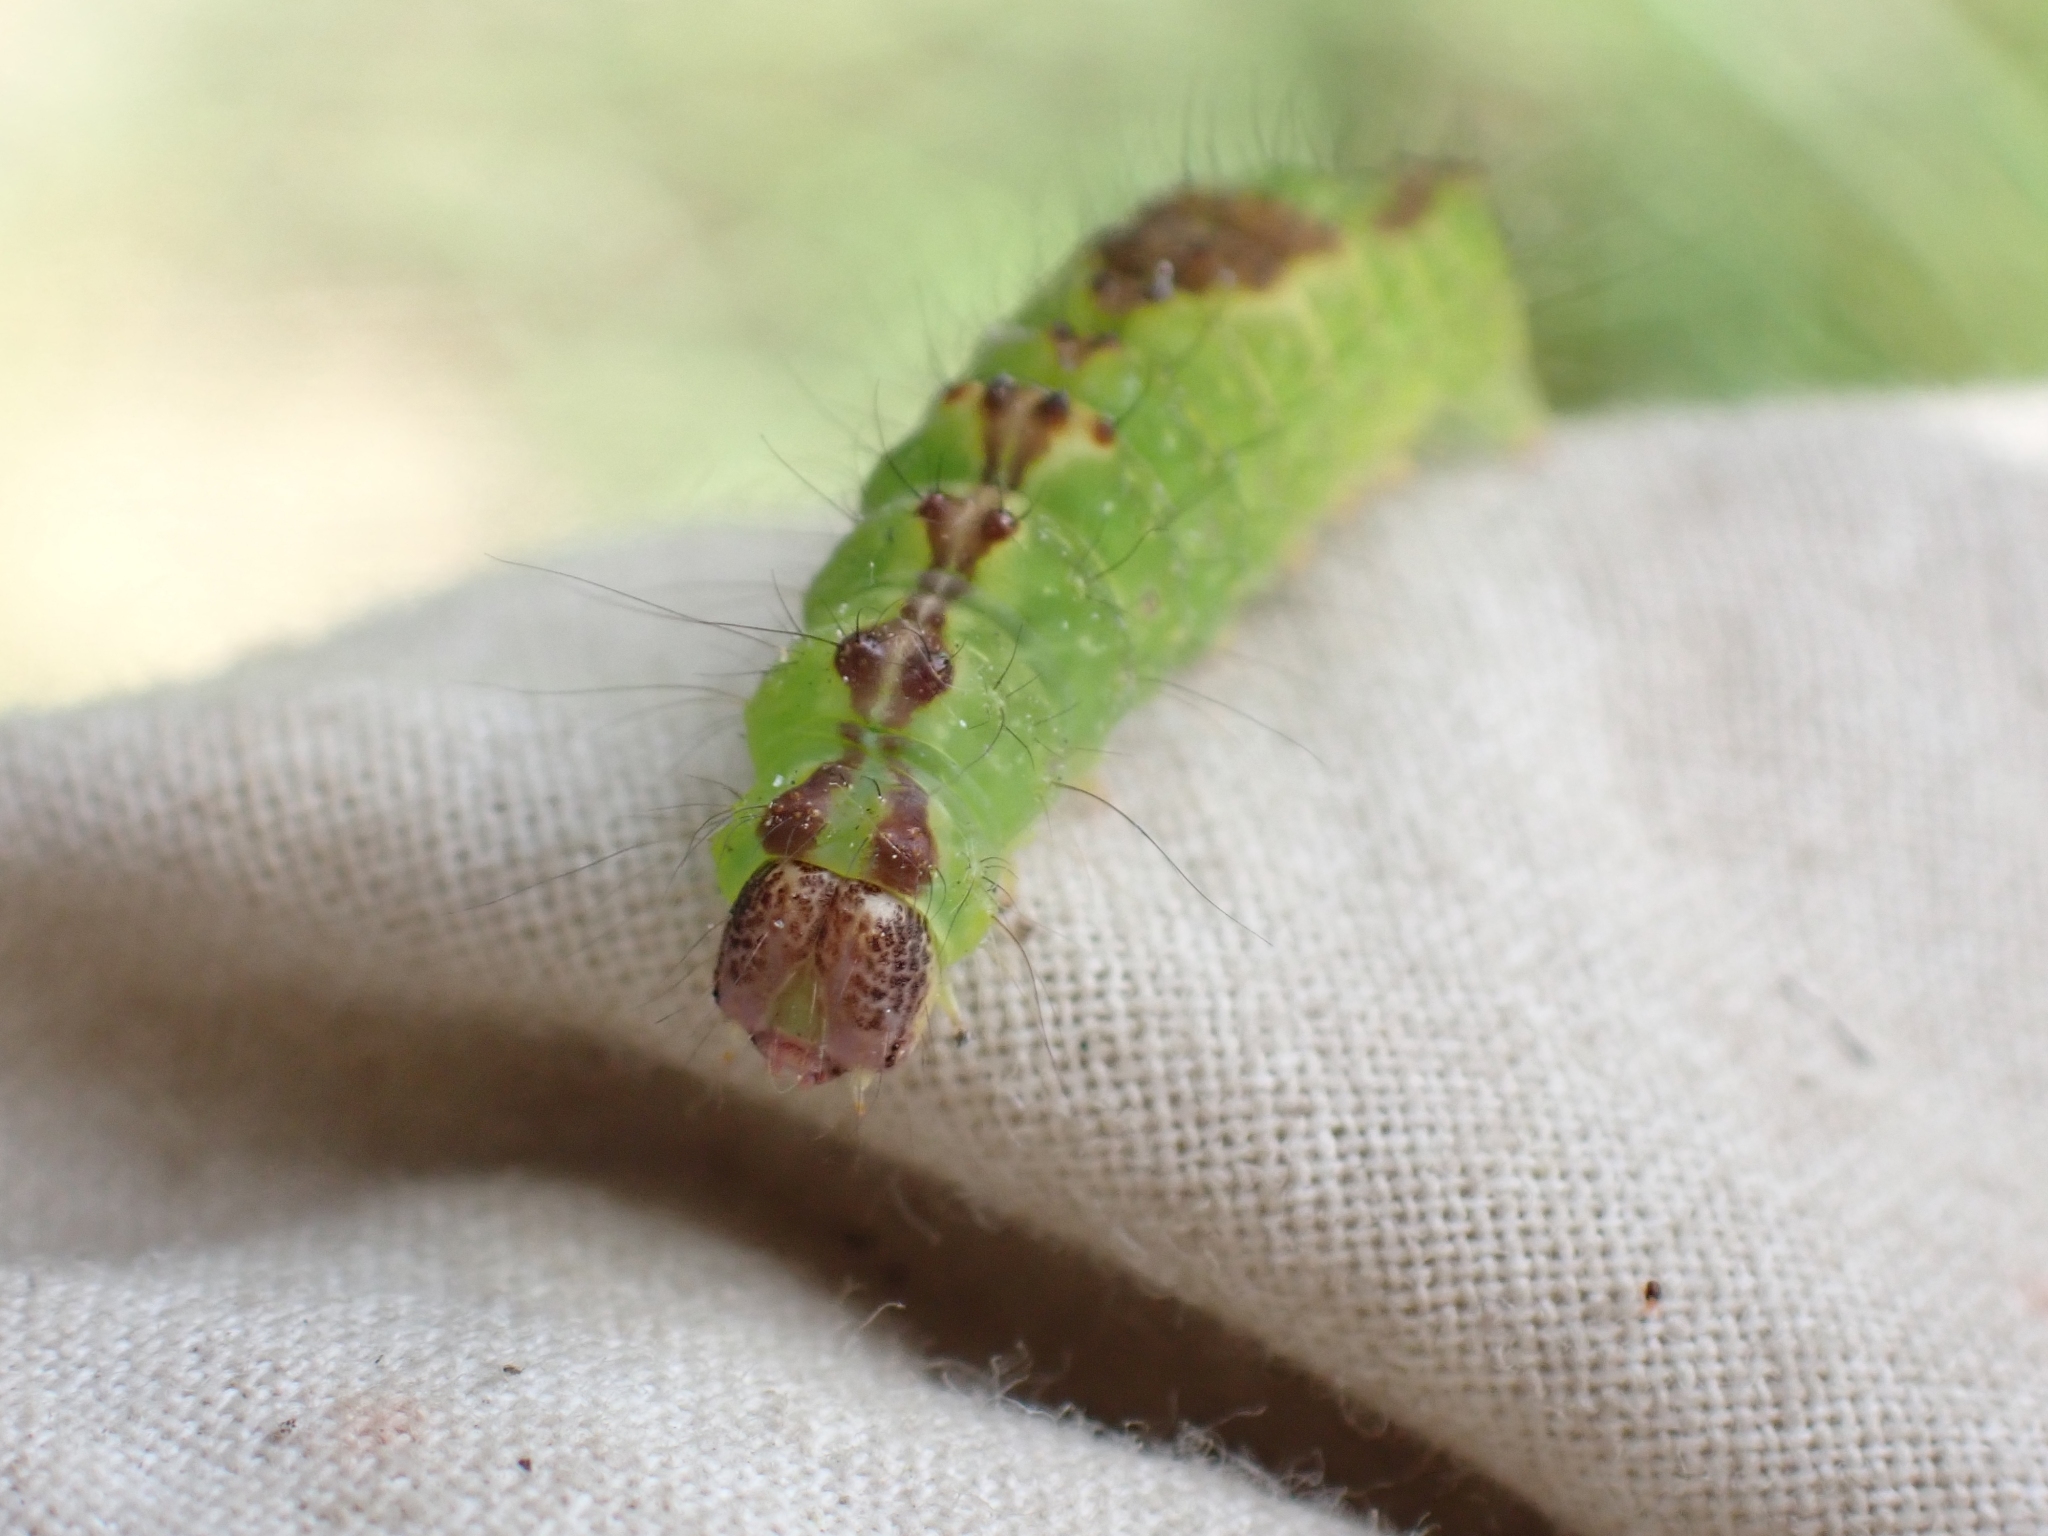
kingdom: Animalia
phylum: Arthropoda
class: Insecta
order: Lepidoptera
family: Noctuidae
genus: Acronicta
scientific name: Acronicta grisea
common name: Gray dagger
